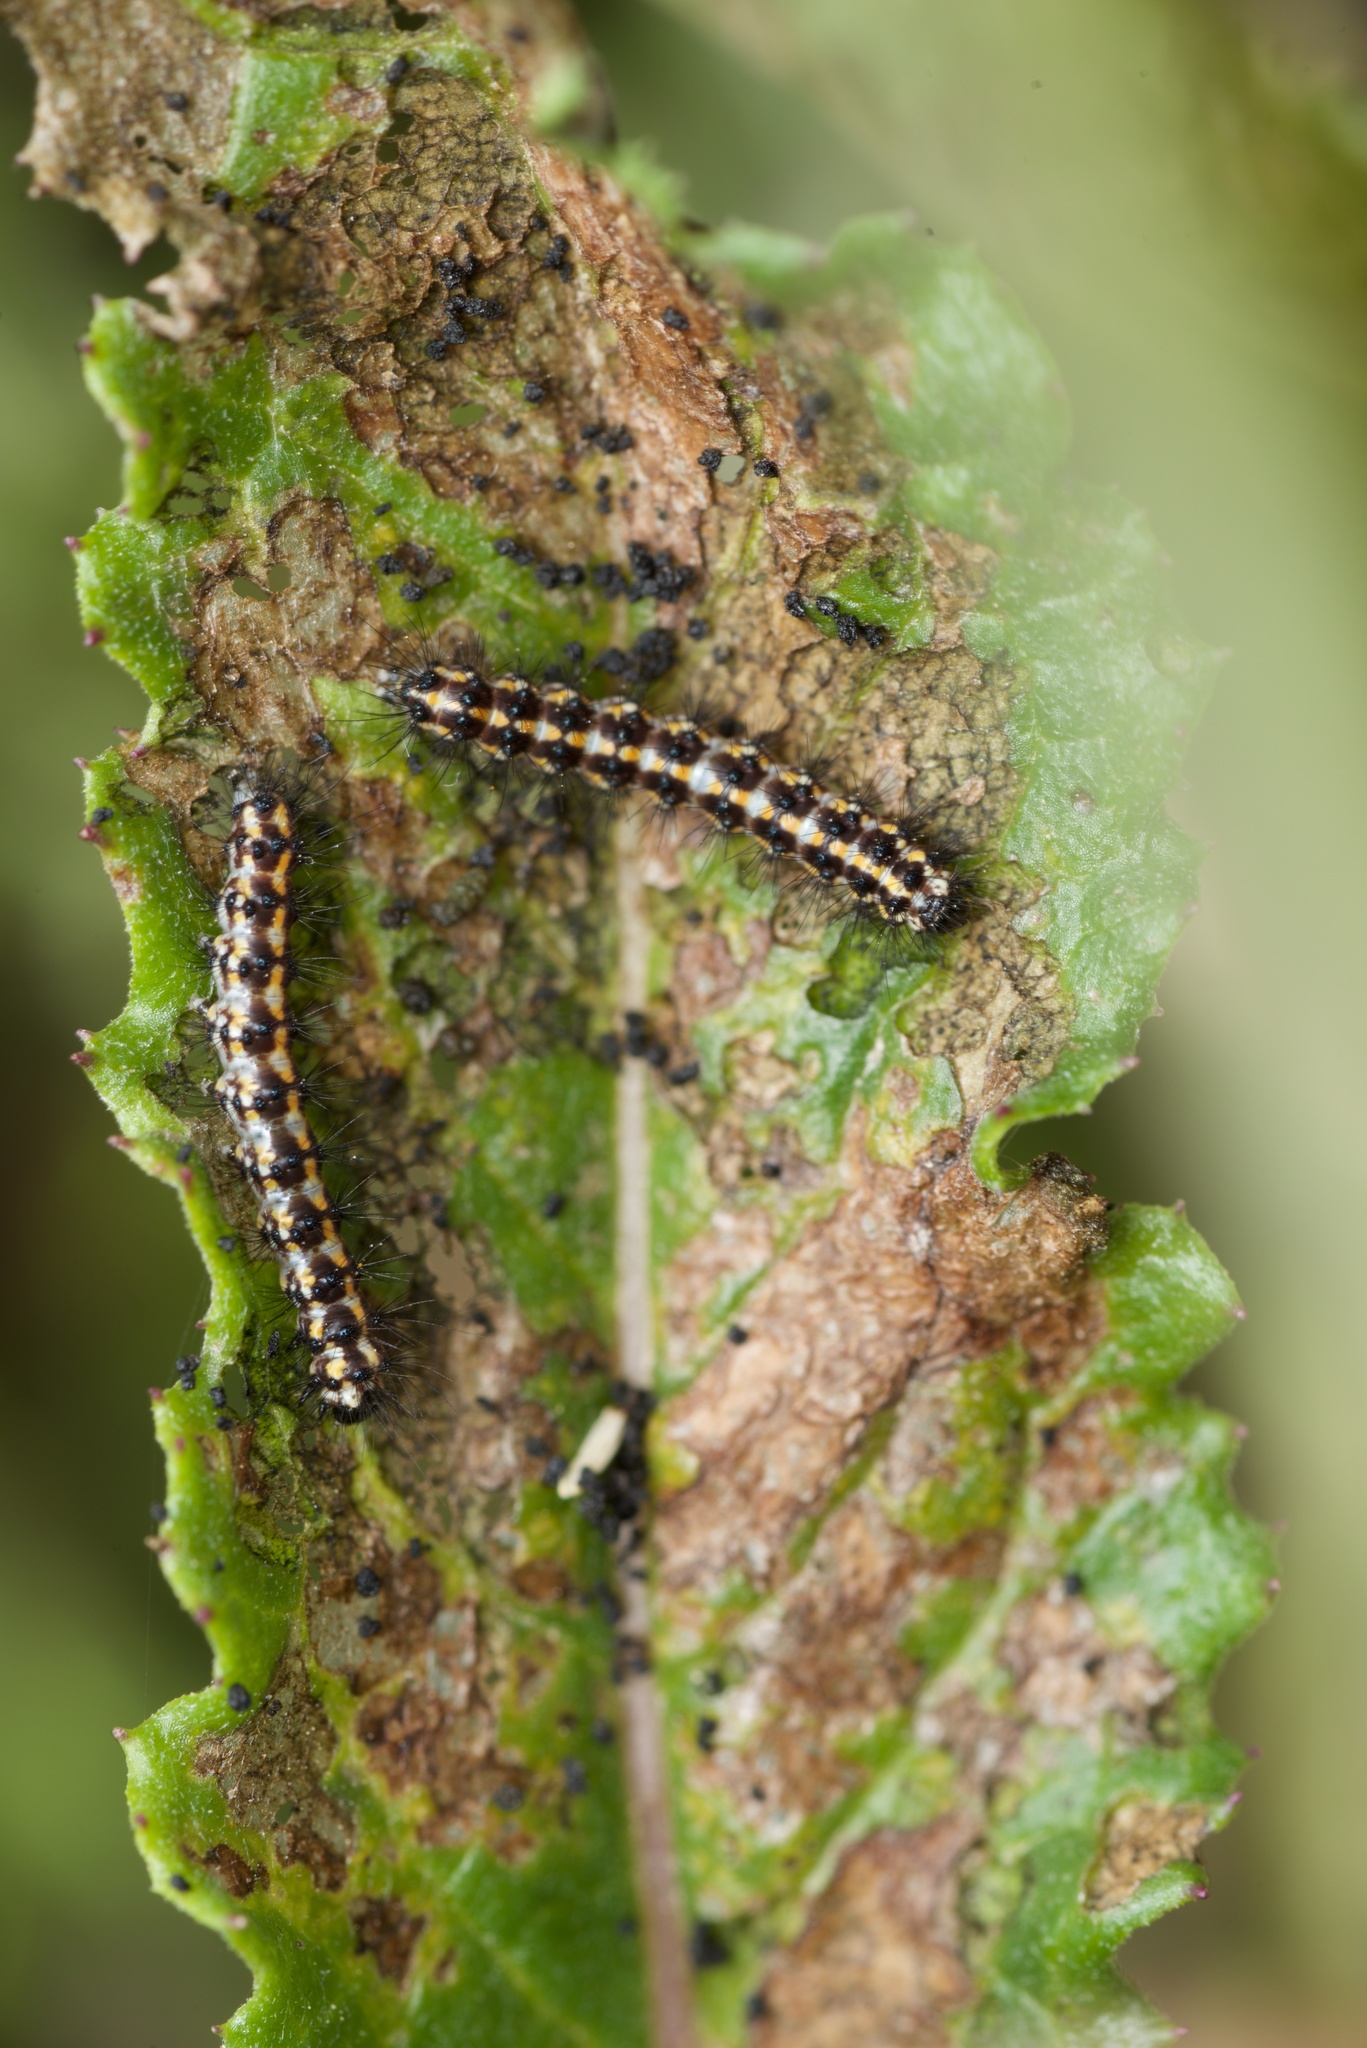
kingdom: Animalia
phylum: Arthropoda
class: Insecta
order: Lepidoptera
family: Erebidae
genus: Nyctemera
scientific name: Nyctemera annulatum
